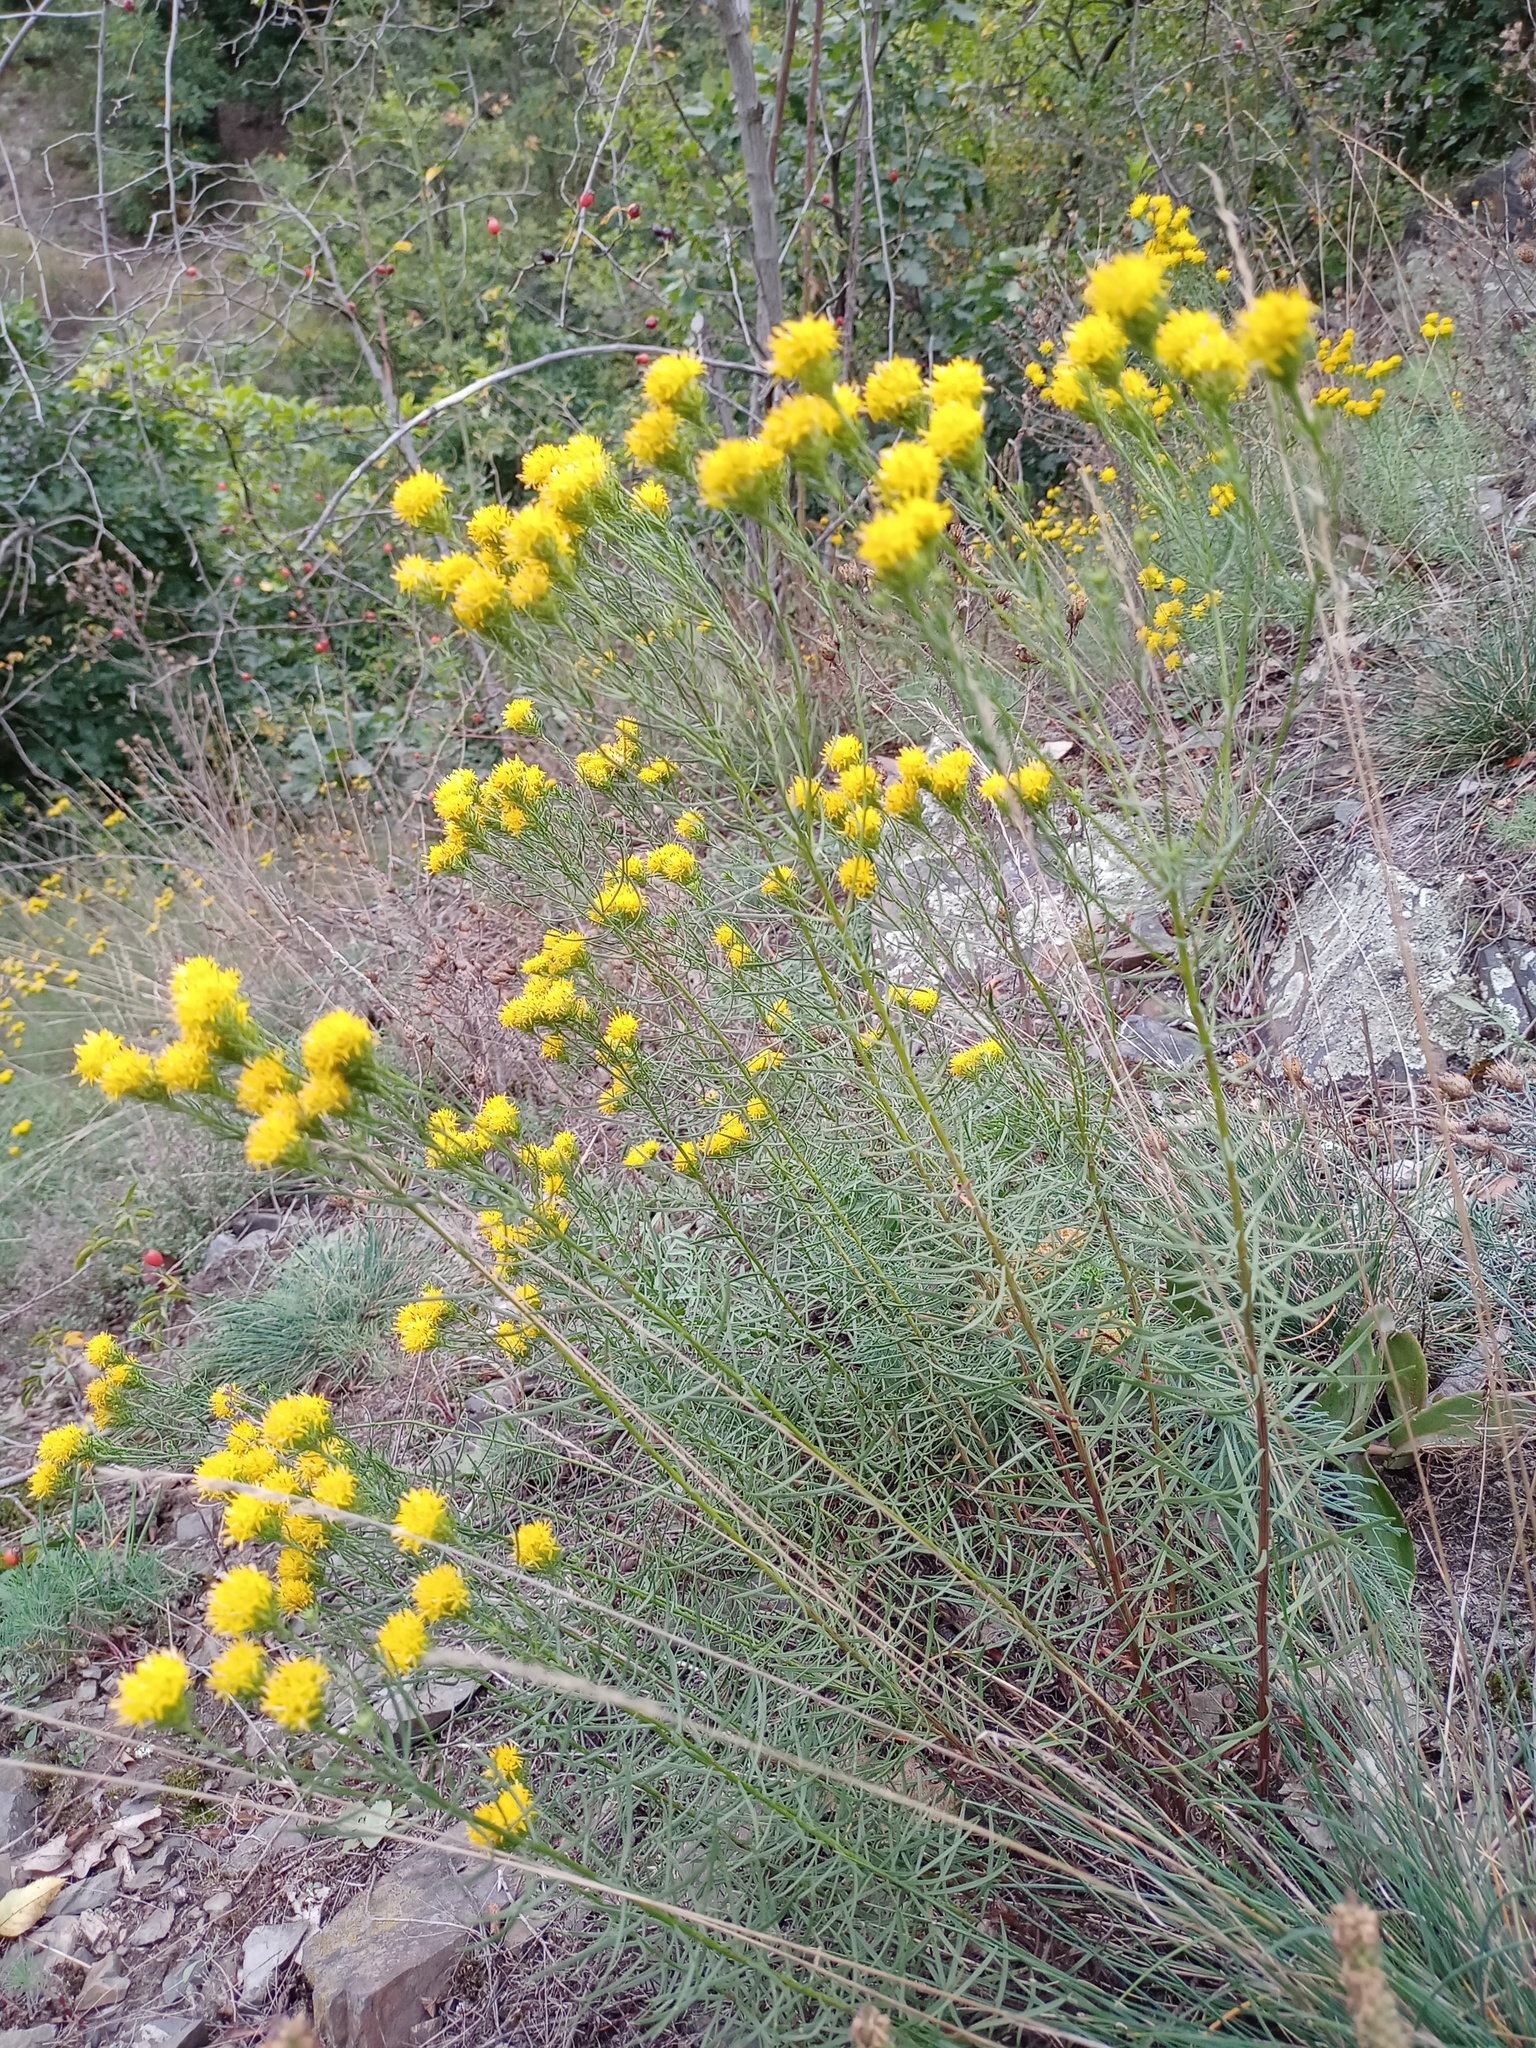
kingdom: Plantae
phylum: Tracheophyta
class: Magnoliopsida
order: Asterales
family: Asteraceae
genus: Galatella
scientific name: Galatella linosyris
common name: Goldilocks aster
